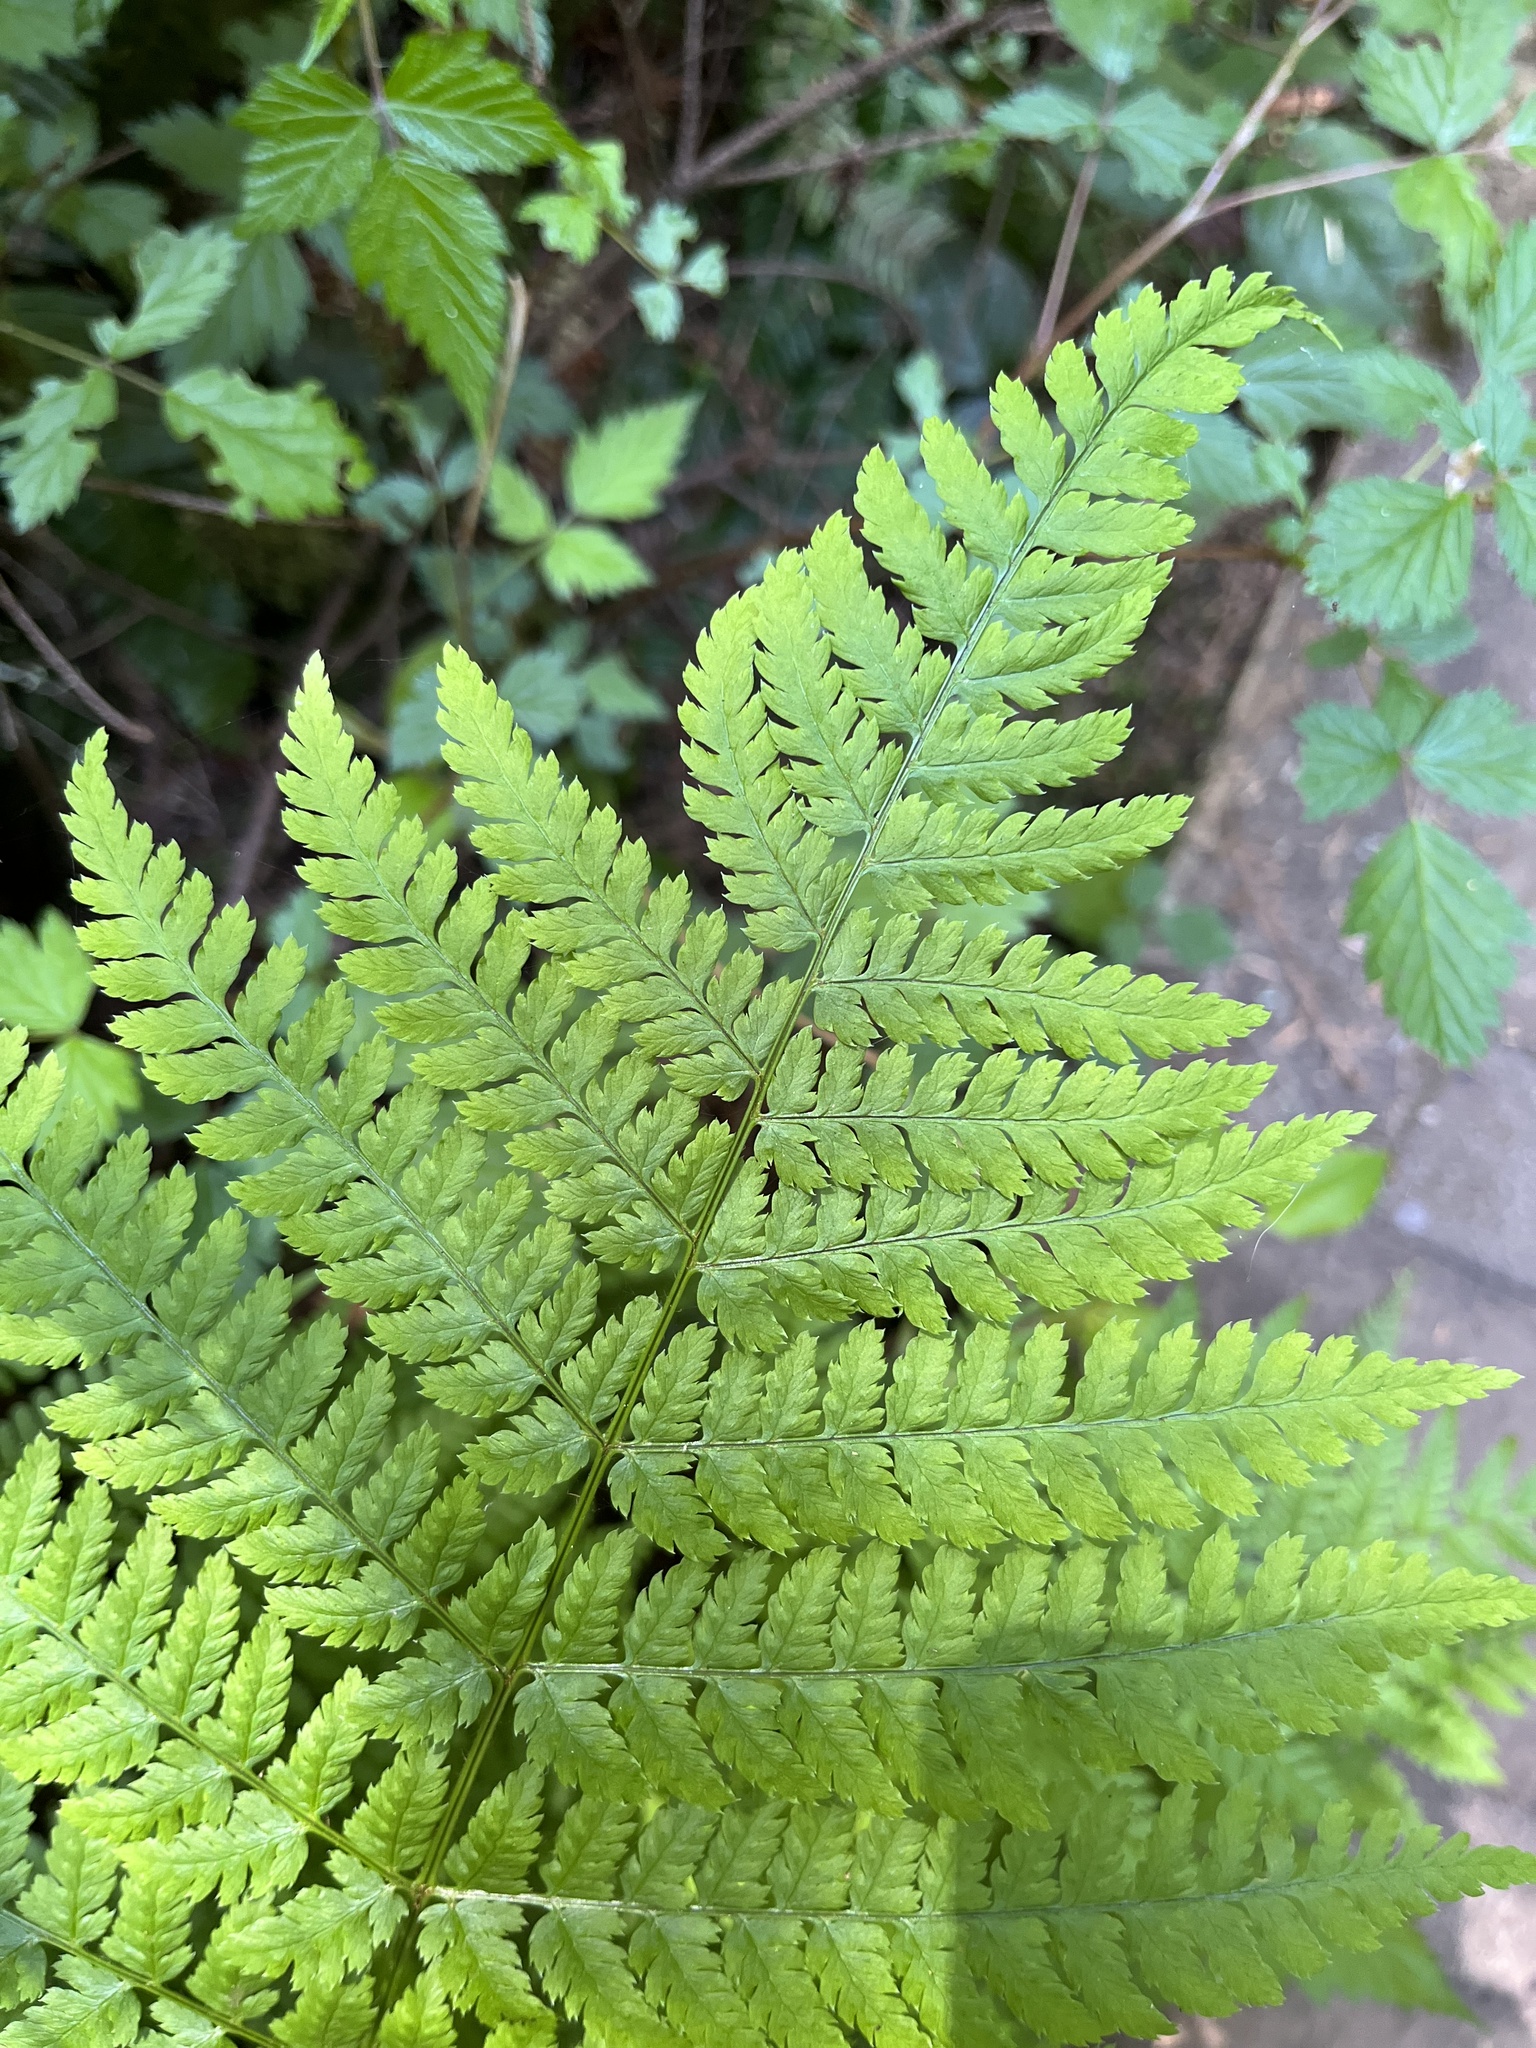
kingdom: Plantae
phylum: Tracheophyta
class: Polypodiopsida
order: Polypodiales
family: Dryopteridaceae
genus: Dryopteris
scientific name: Dryopteris expansa
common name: Northern buckler fern
